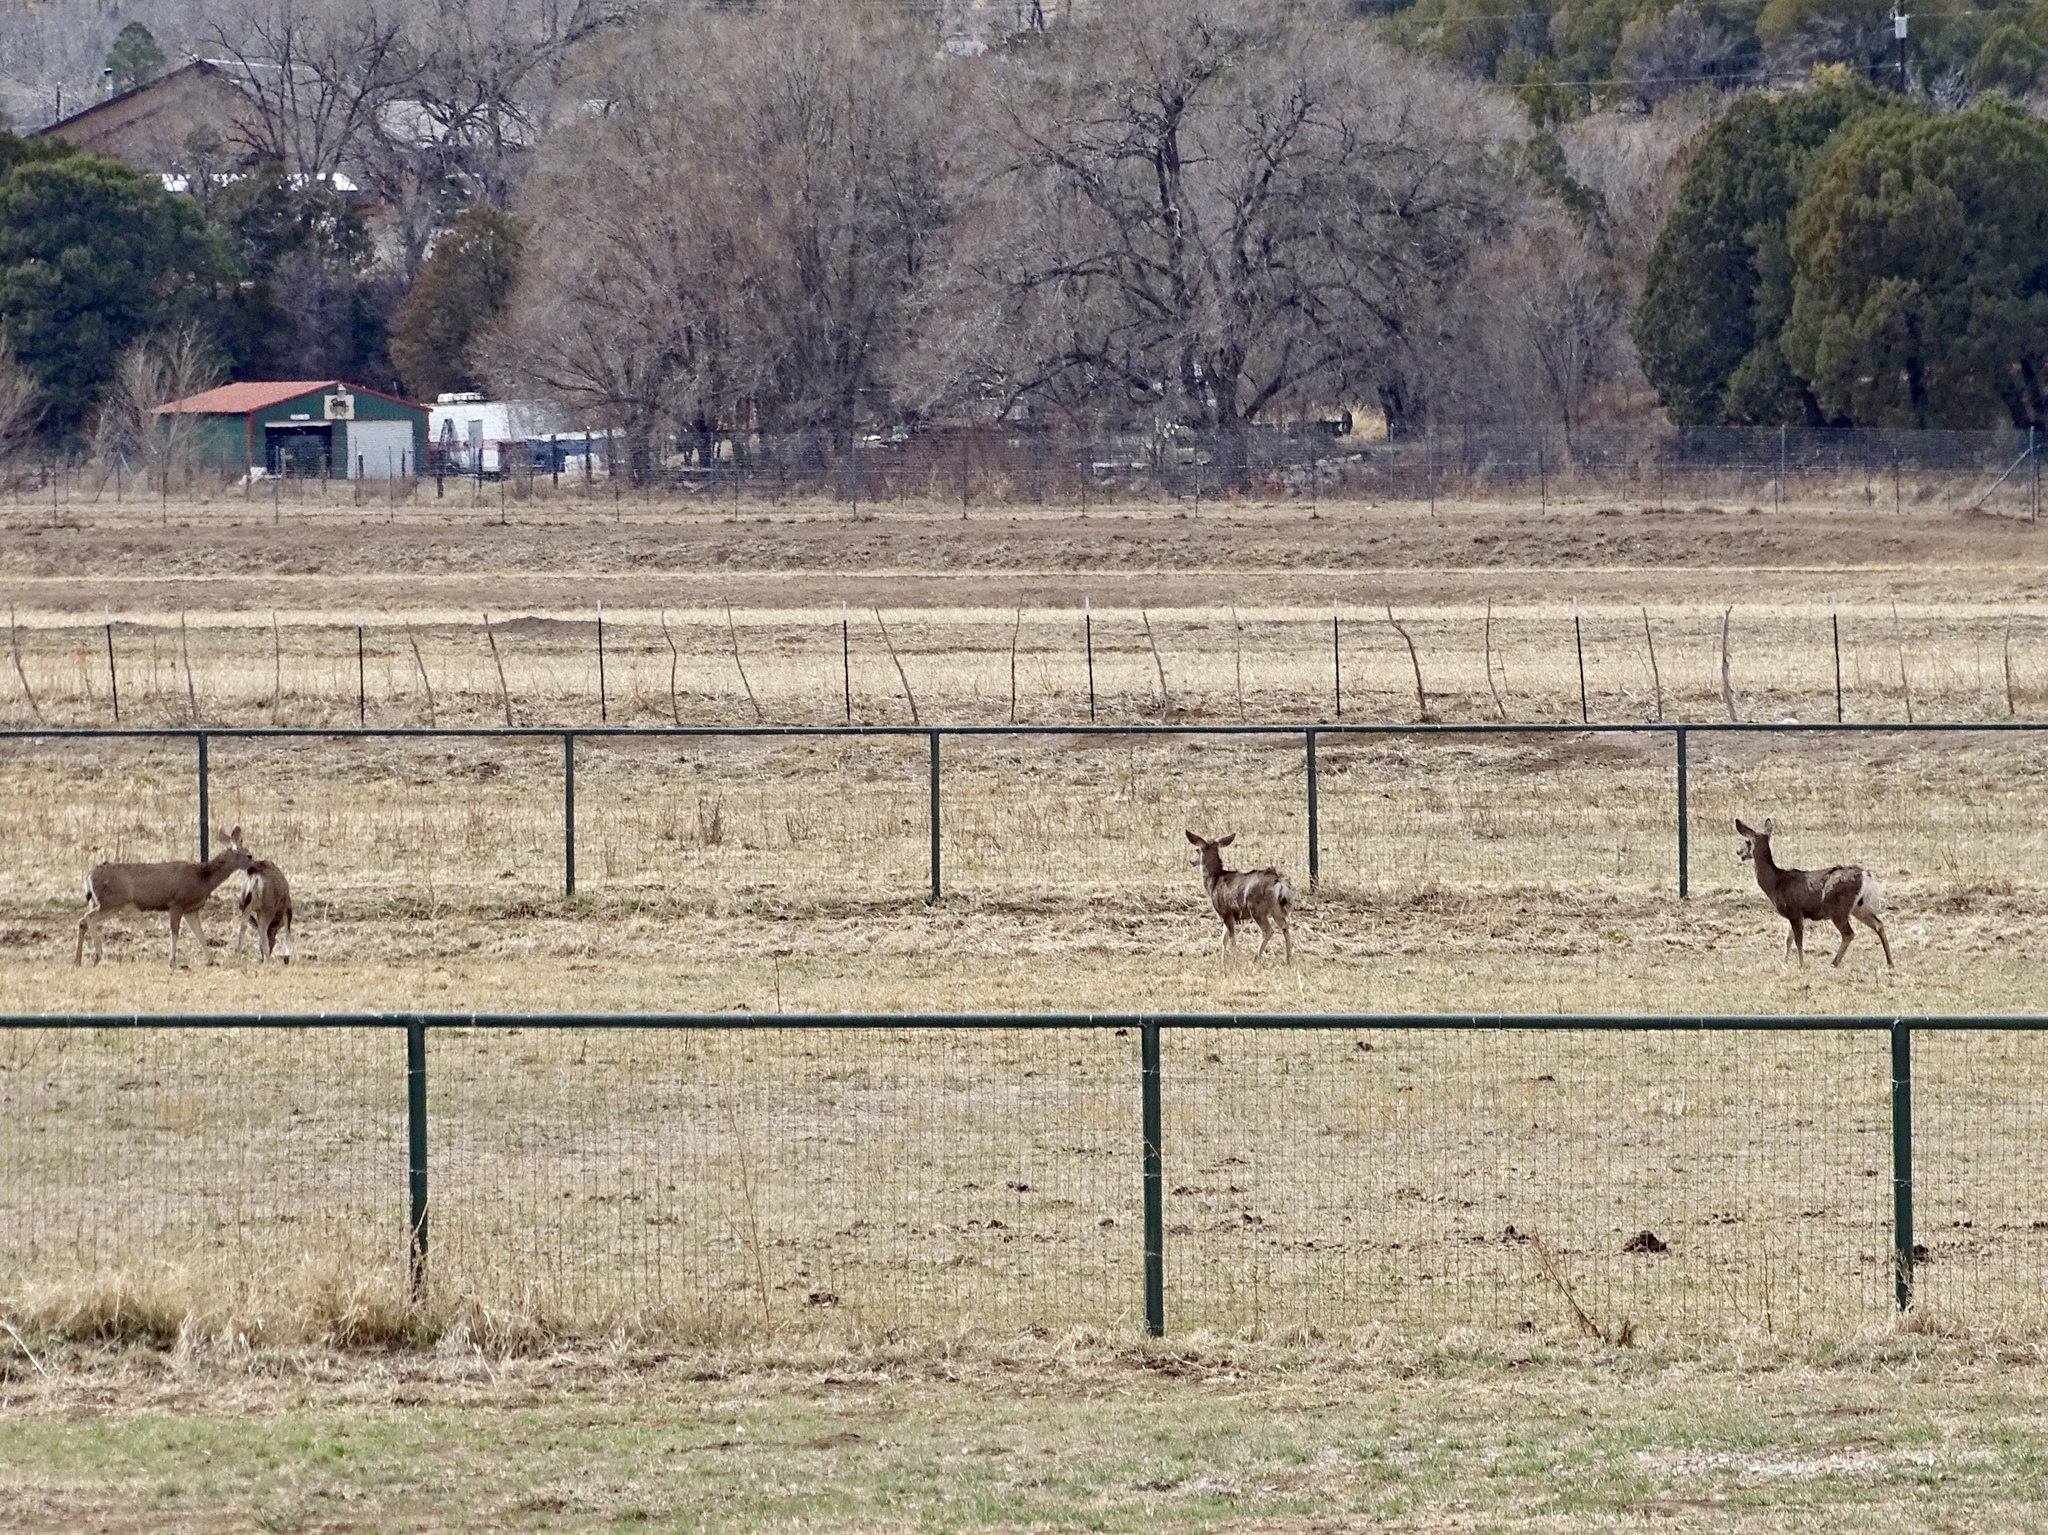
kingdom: Animalia
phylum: Chordata
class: Mammalia
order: Artiodactyla
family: Cervidae
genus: Odocoileus
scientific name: Odocoileus hemionus
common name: Mule deer
